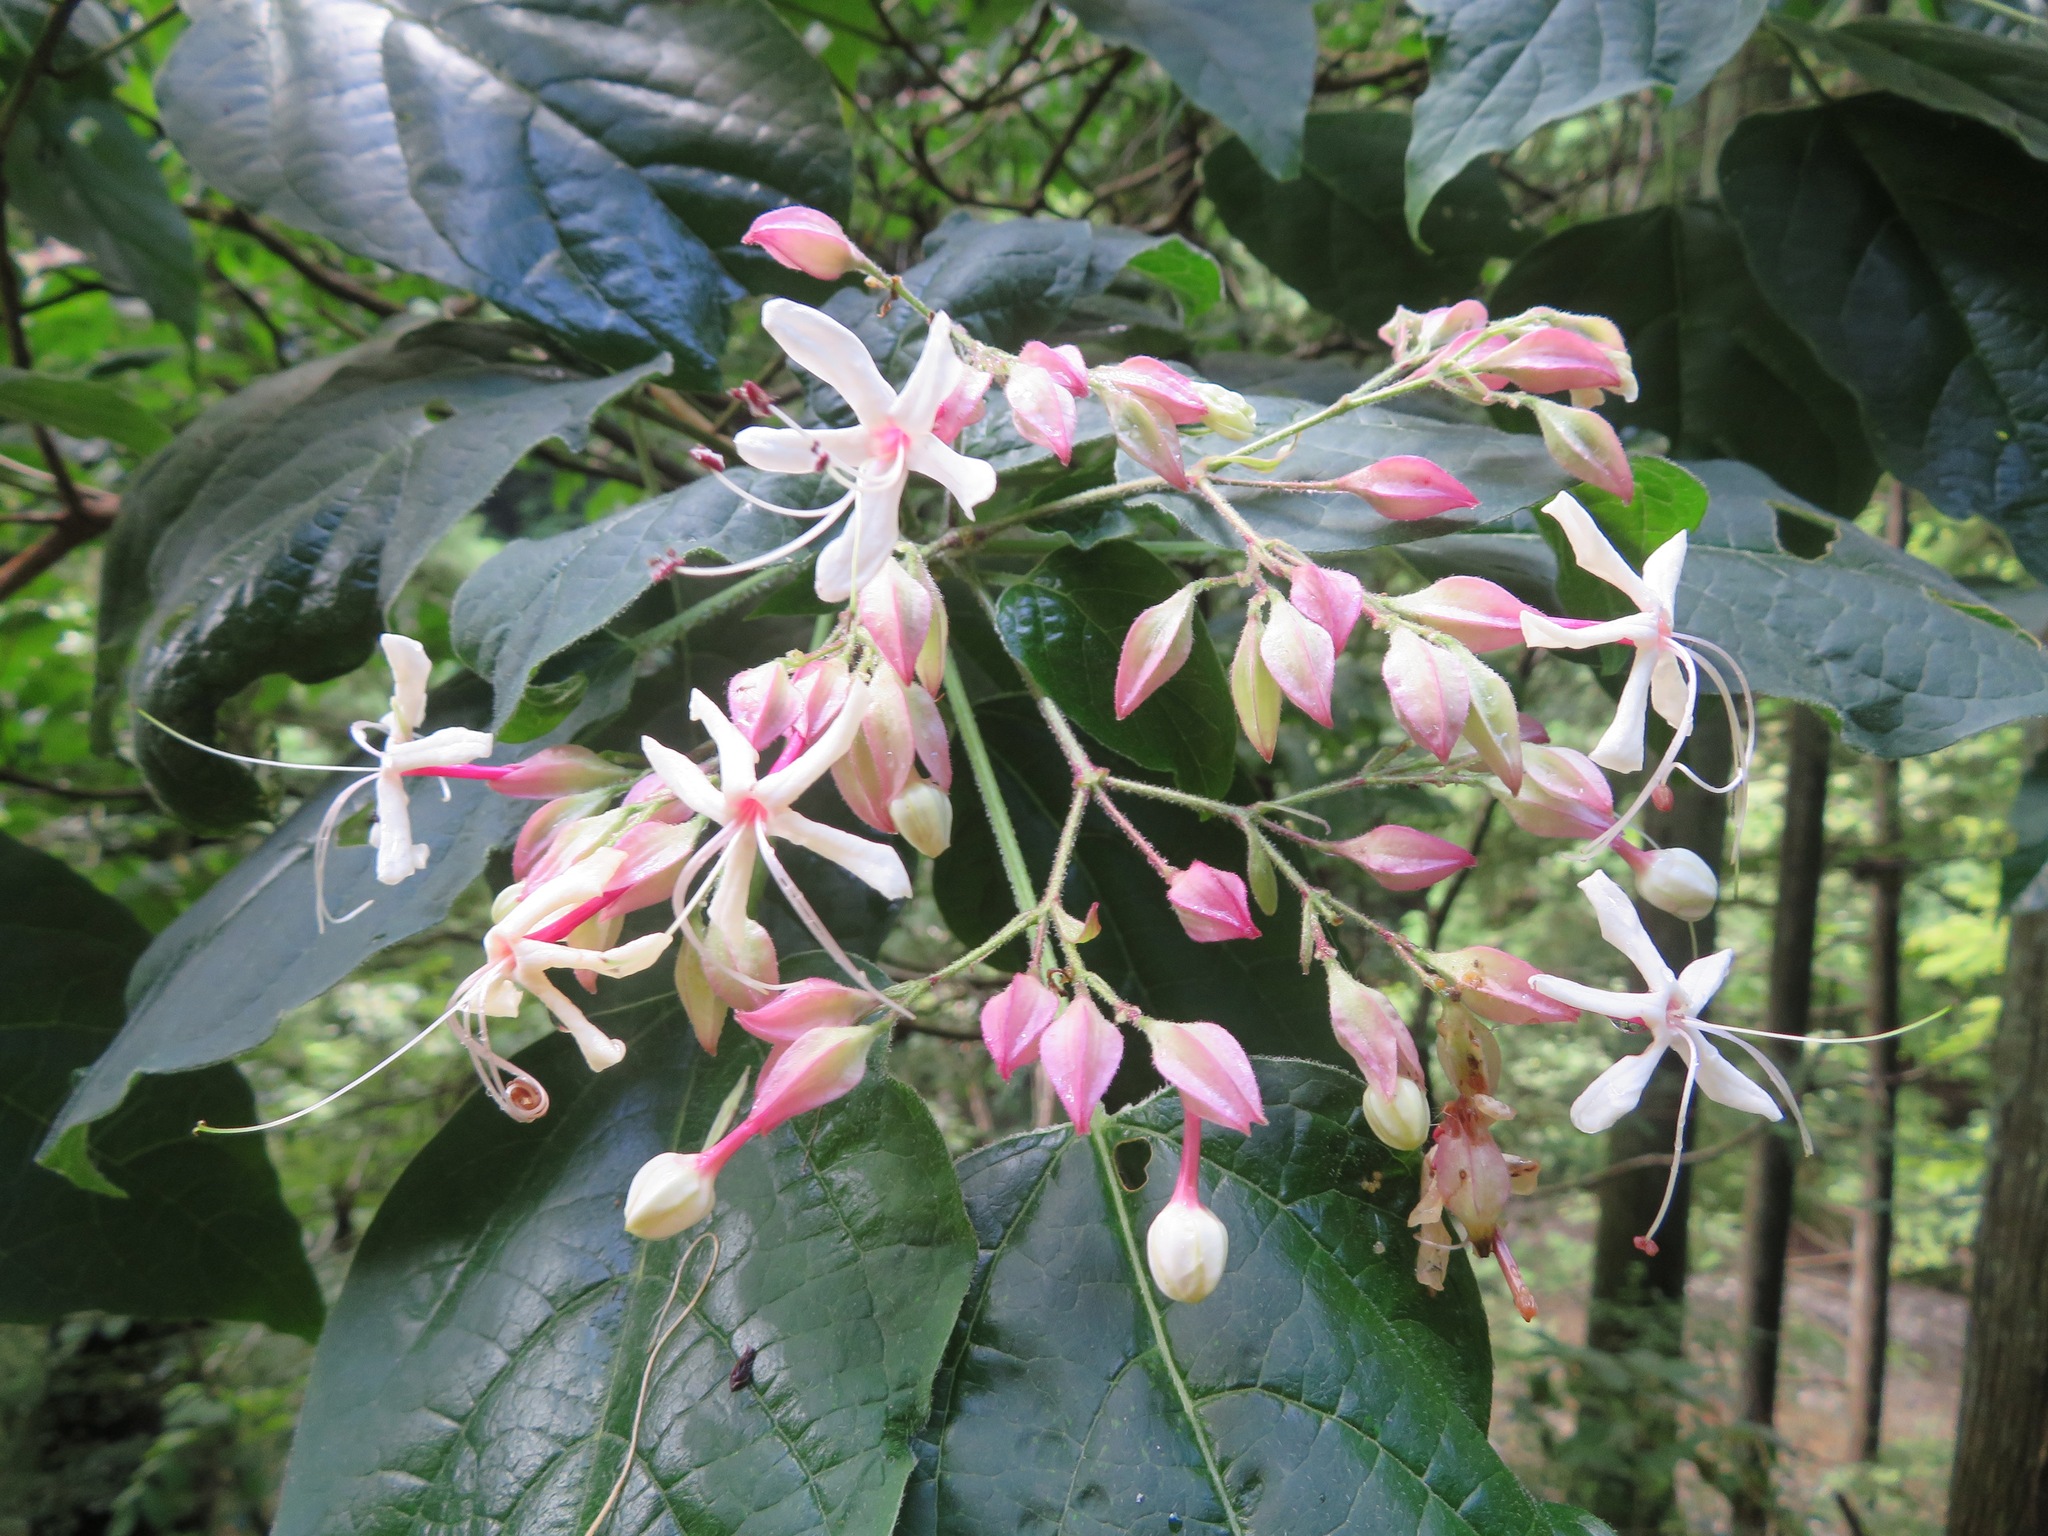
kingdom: Plantae
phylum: Tracheophyta
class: Magnoliopsida
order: Lamiales
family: Lamiaceae
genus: Clerodendrum
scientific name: Clerodendrum trichotomum
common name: Harlequin glorybower
